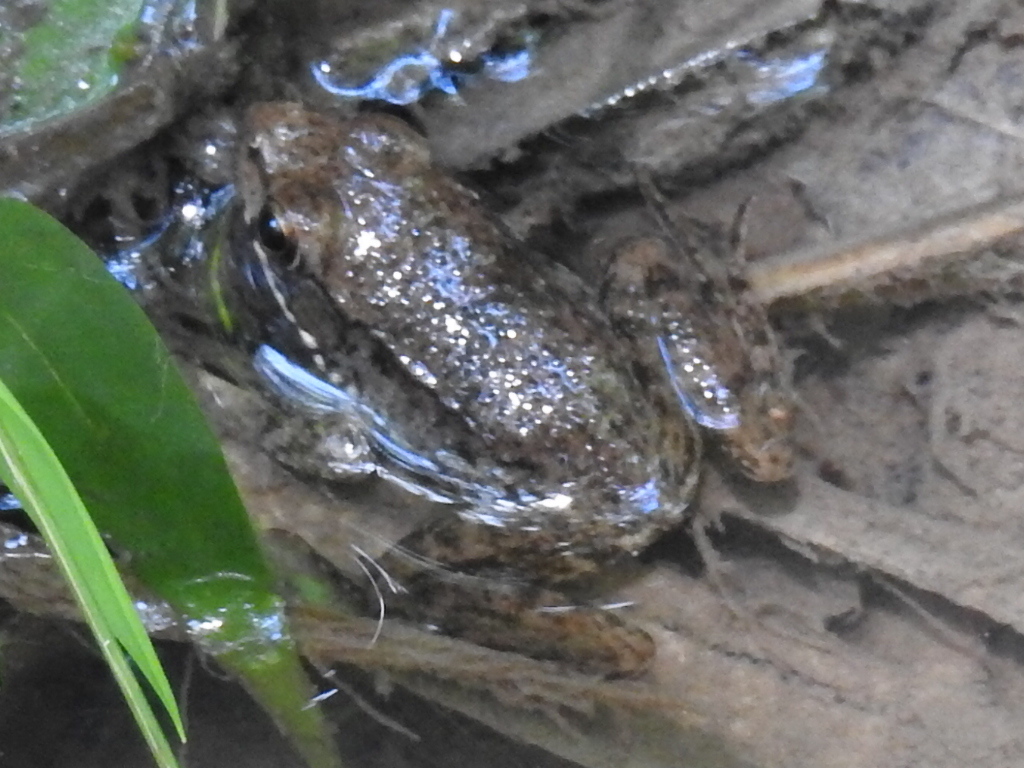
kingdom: Animalia
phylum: Chordata
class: Amphibia
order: Anura
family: Ranidae
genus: Lithobates
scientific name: Lithobates clamitans
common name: Green frog
